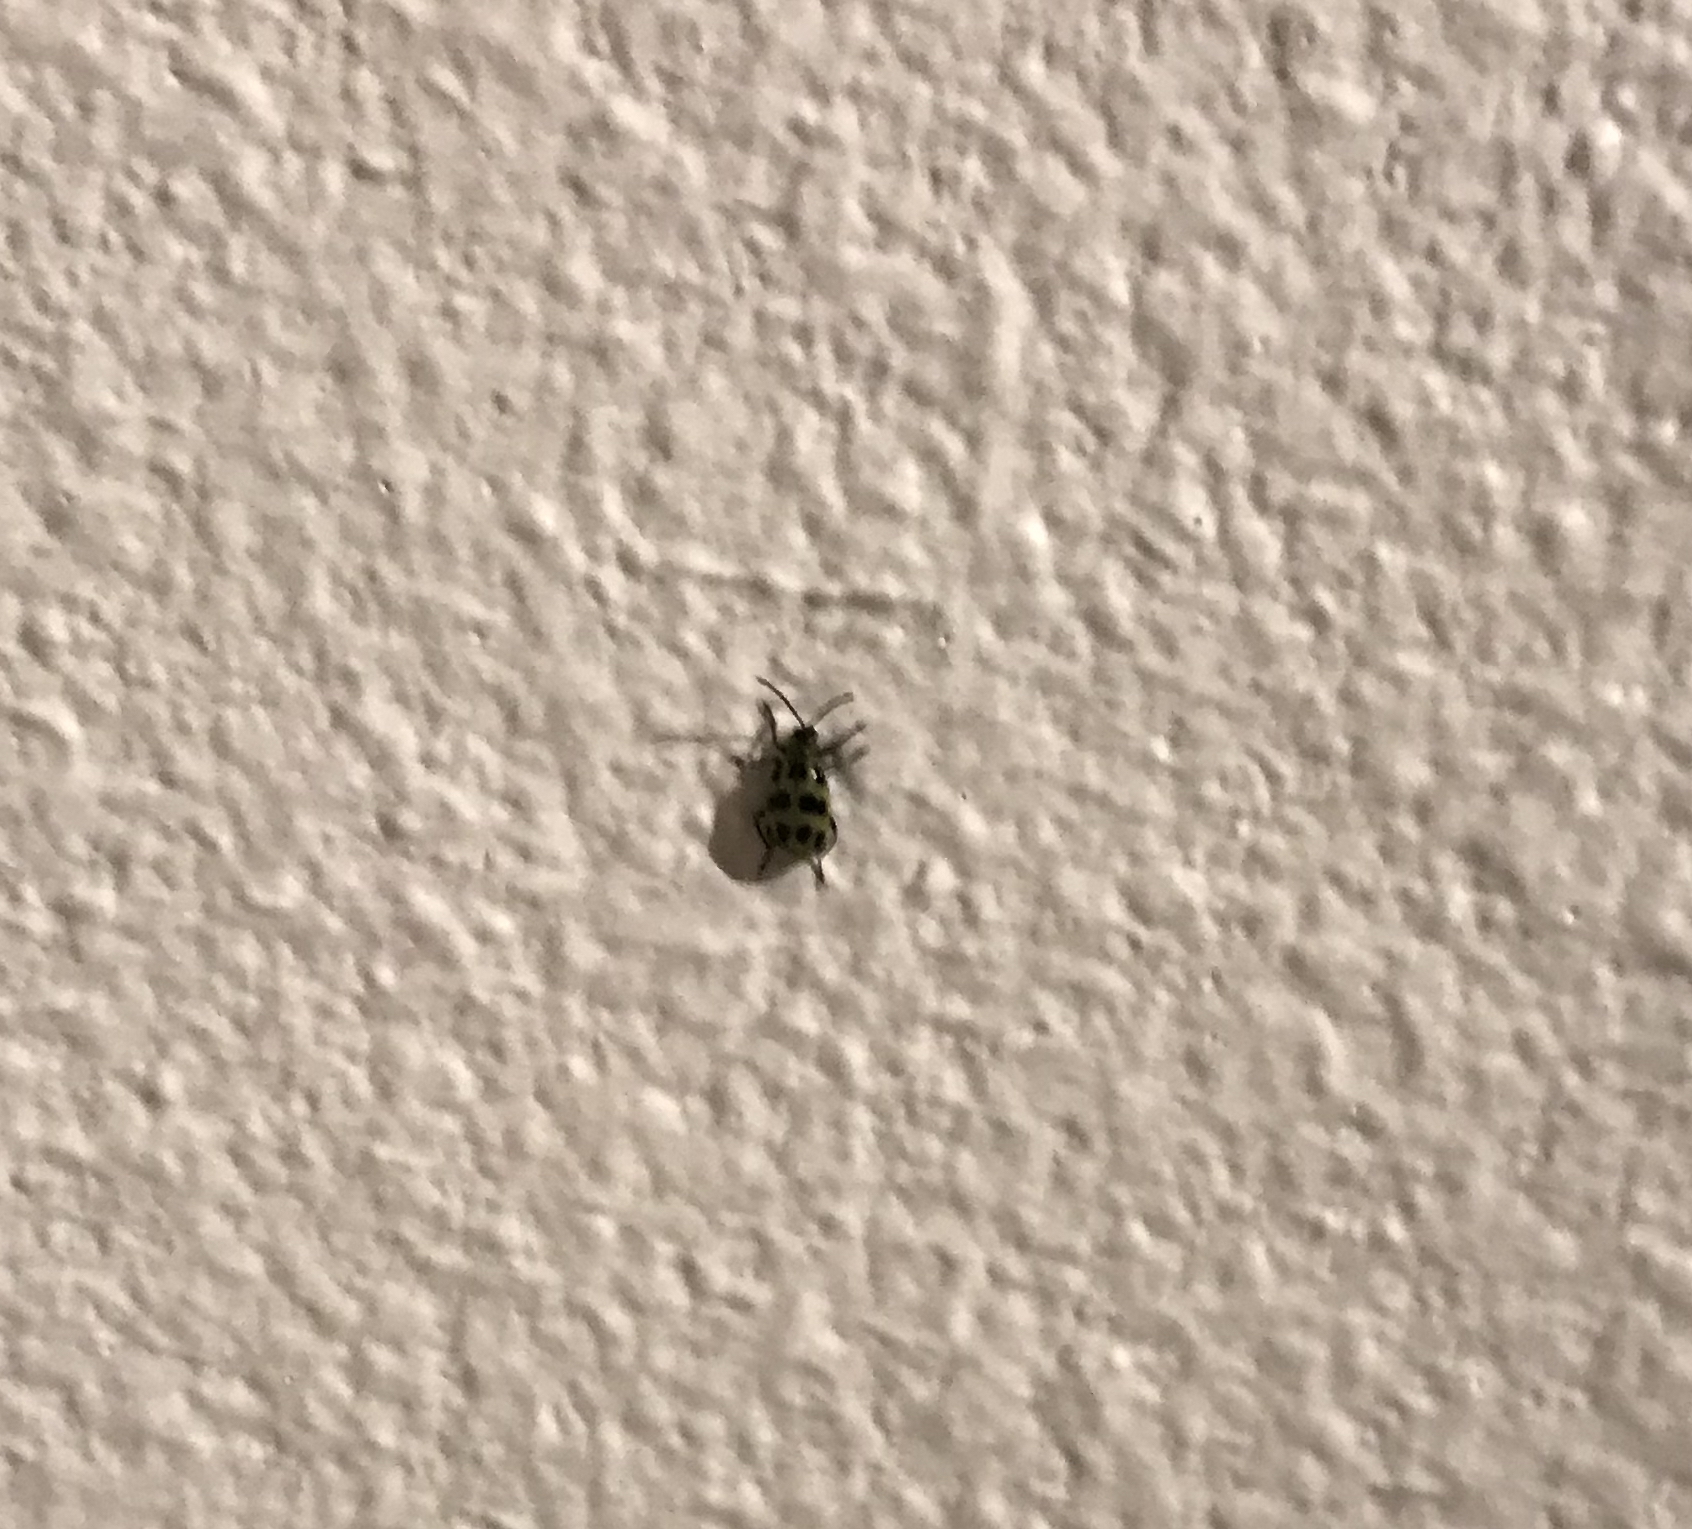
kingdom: Animalia
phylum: Arthropoda
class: Insecta
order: Coleoptera
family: Chrysomelidae
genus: Diabrotica
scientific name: Diabrotica undecimpunctata
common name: Spotted cucumber beetle
